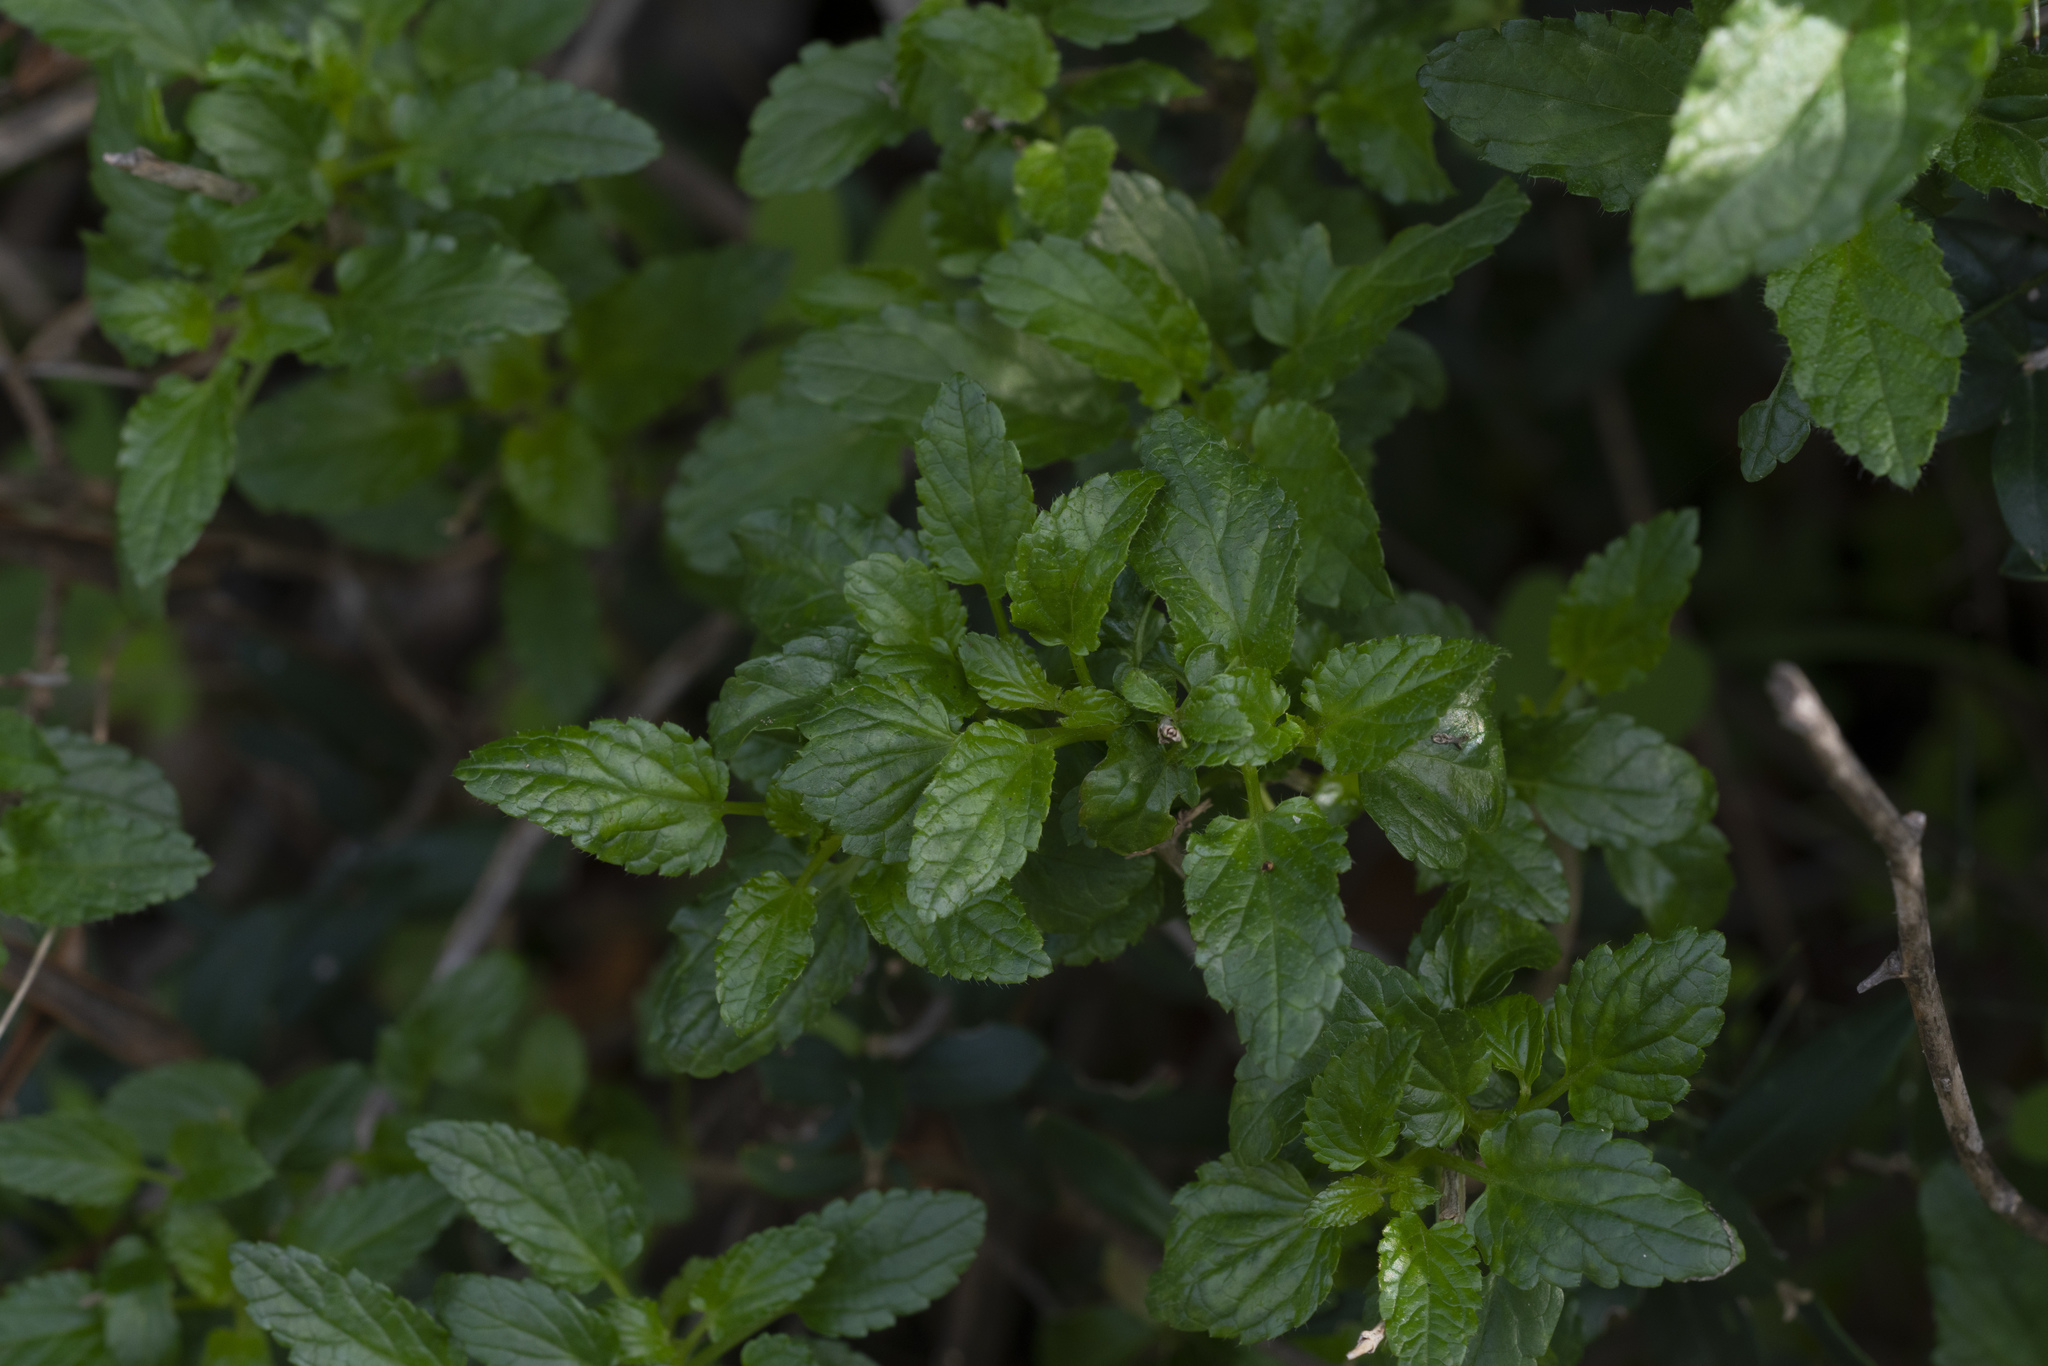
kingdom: Plantae
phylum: Tracheophyta
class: Magnoliopsida
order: Lamiales
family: Lamiaceae
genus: Prasium
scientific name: Prasium majus
